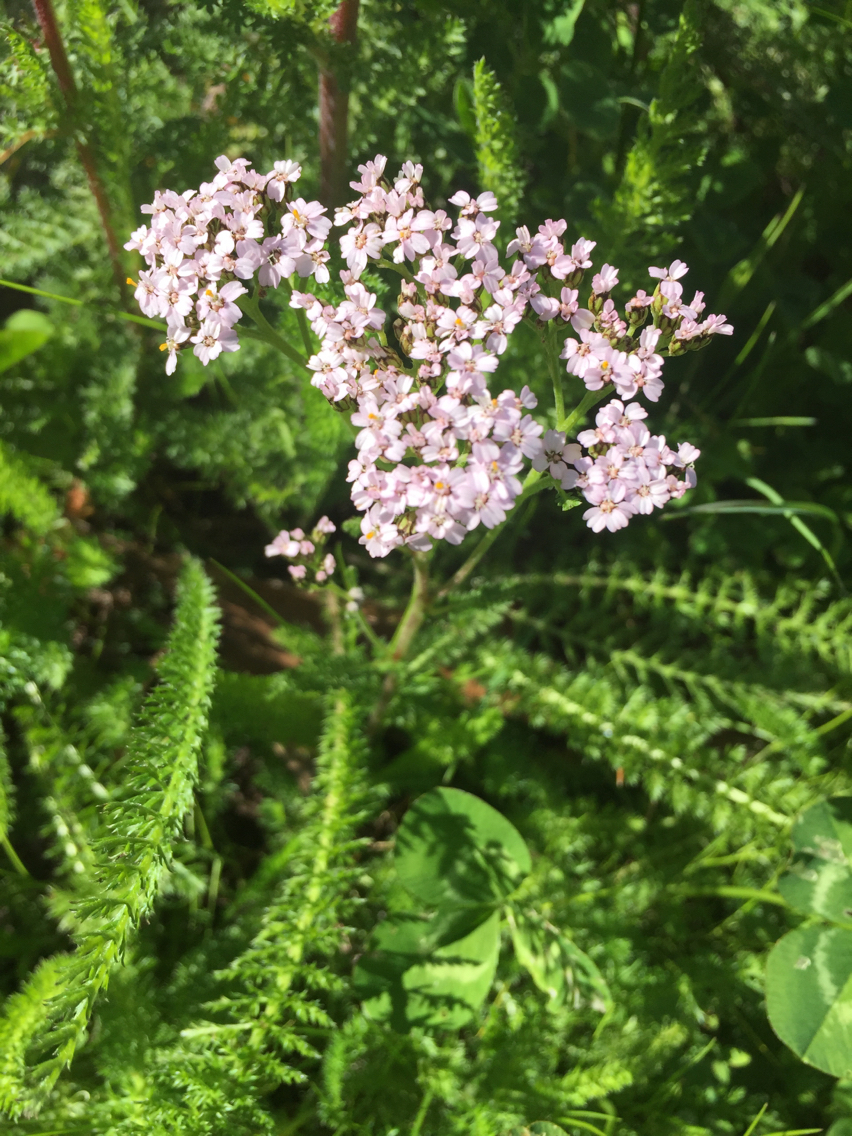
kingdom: Plantae
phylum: Tracheophyta
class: Magnoliopsida
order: Asterales
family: Asteraceae
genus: Achillea
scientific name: Achillea millefolium
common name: Yarrow
